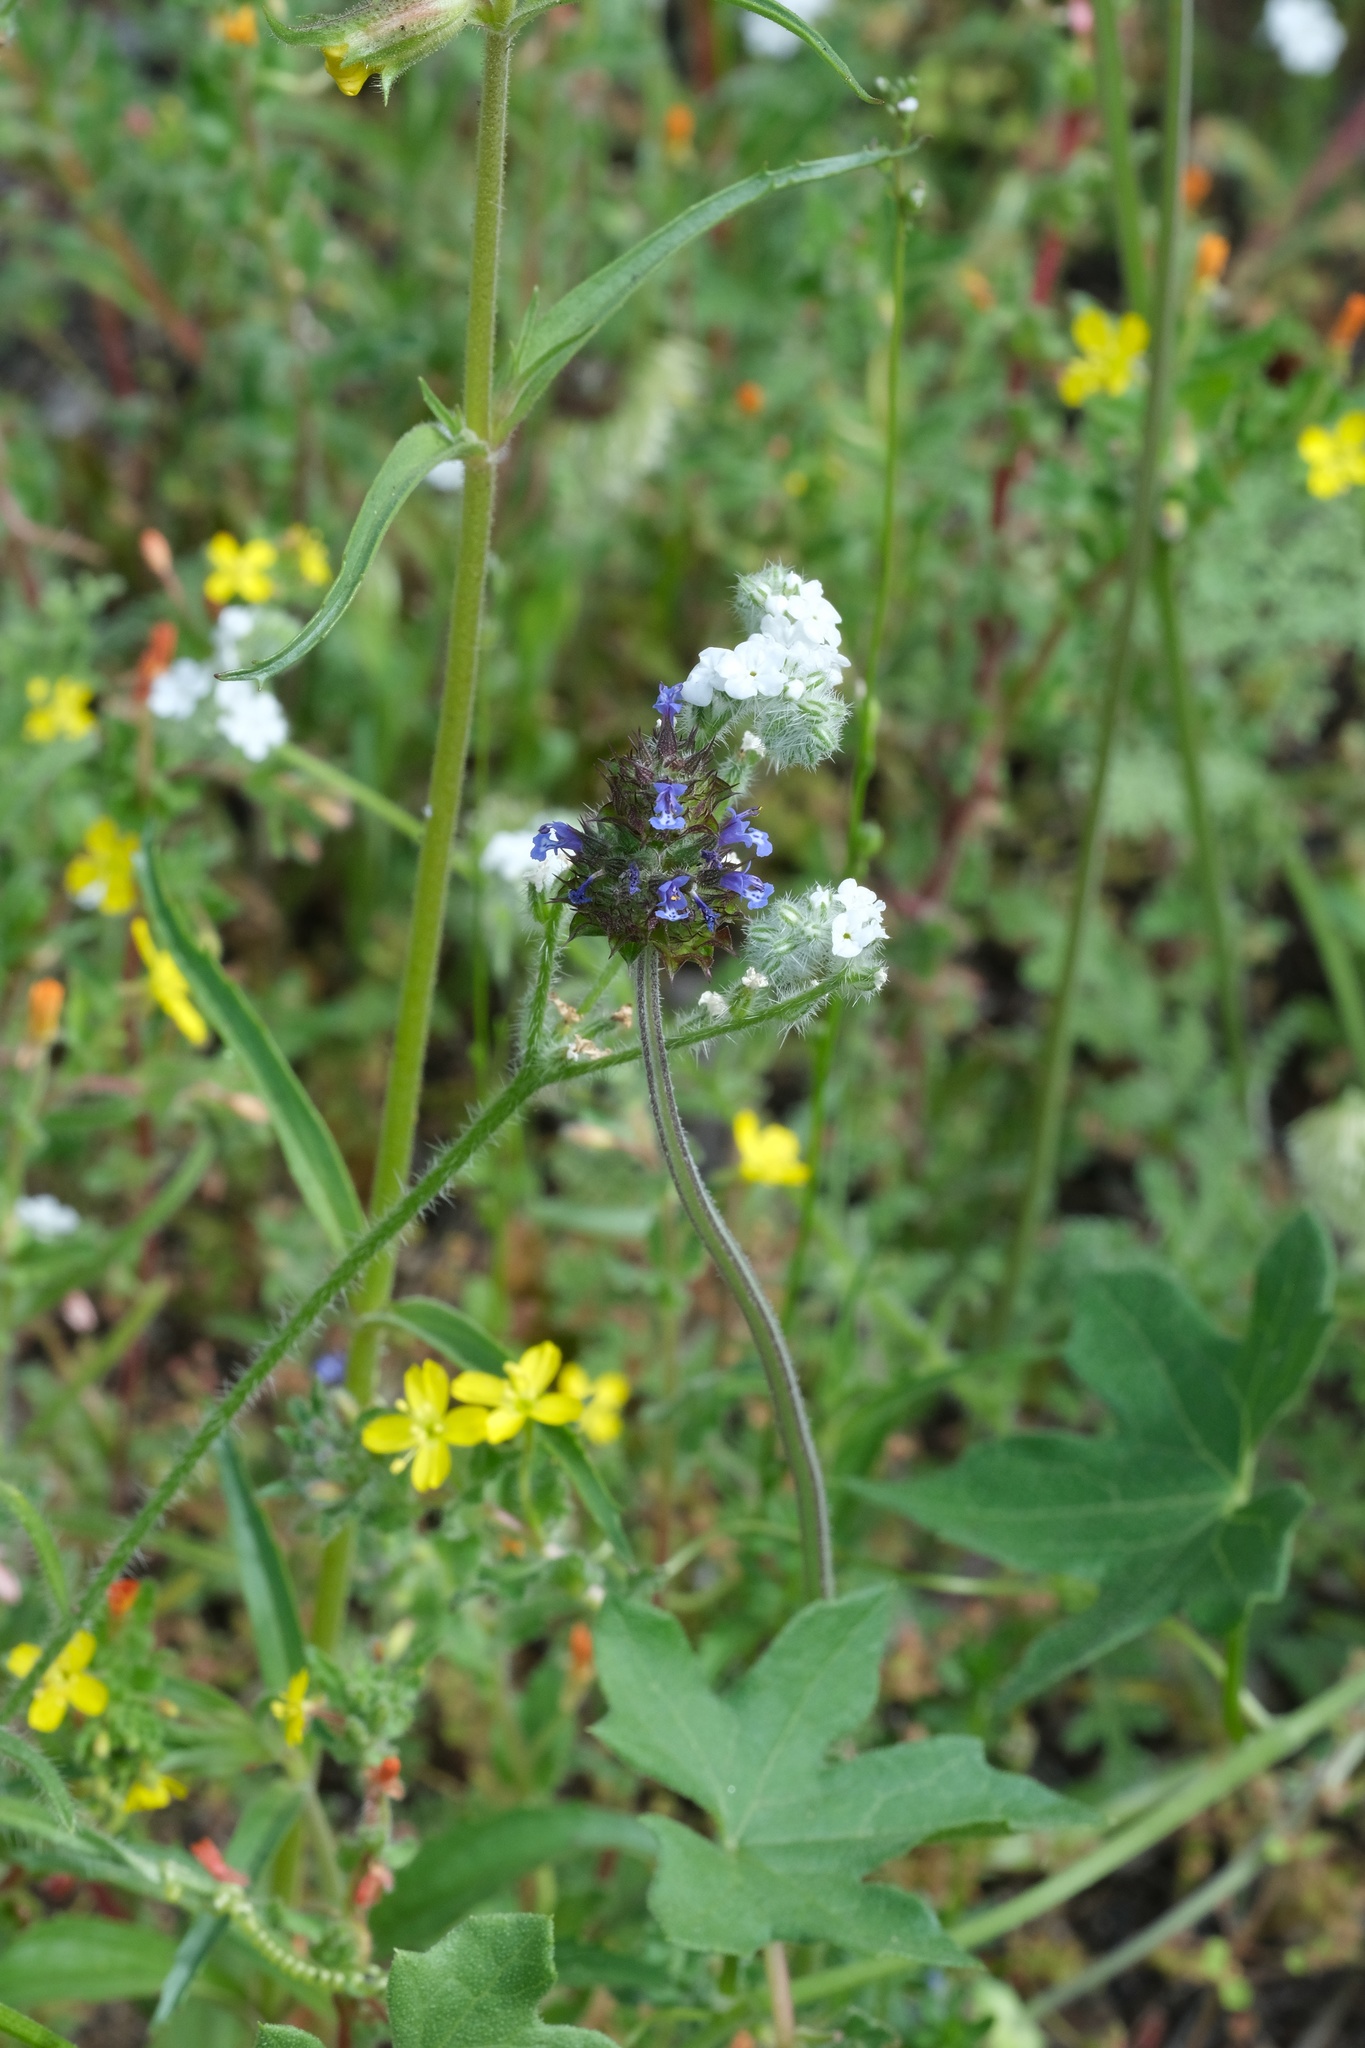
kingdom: Plantae
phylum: Tracheophyta
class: Magnoliopsida
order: Lamiales
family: Lamiaceae
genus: Salvia
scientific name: Salvia columbariae
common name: Chia
